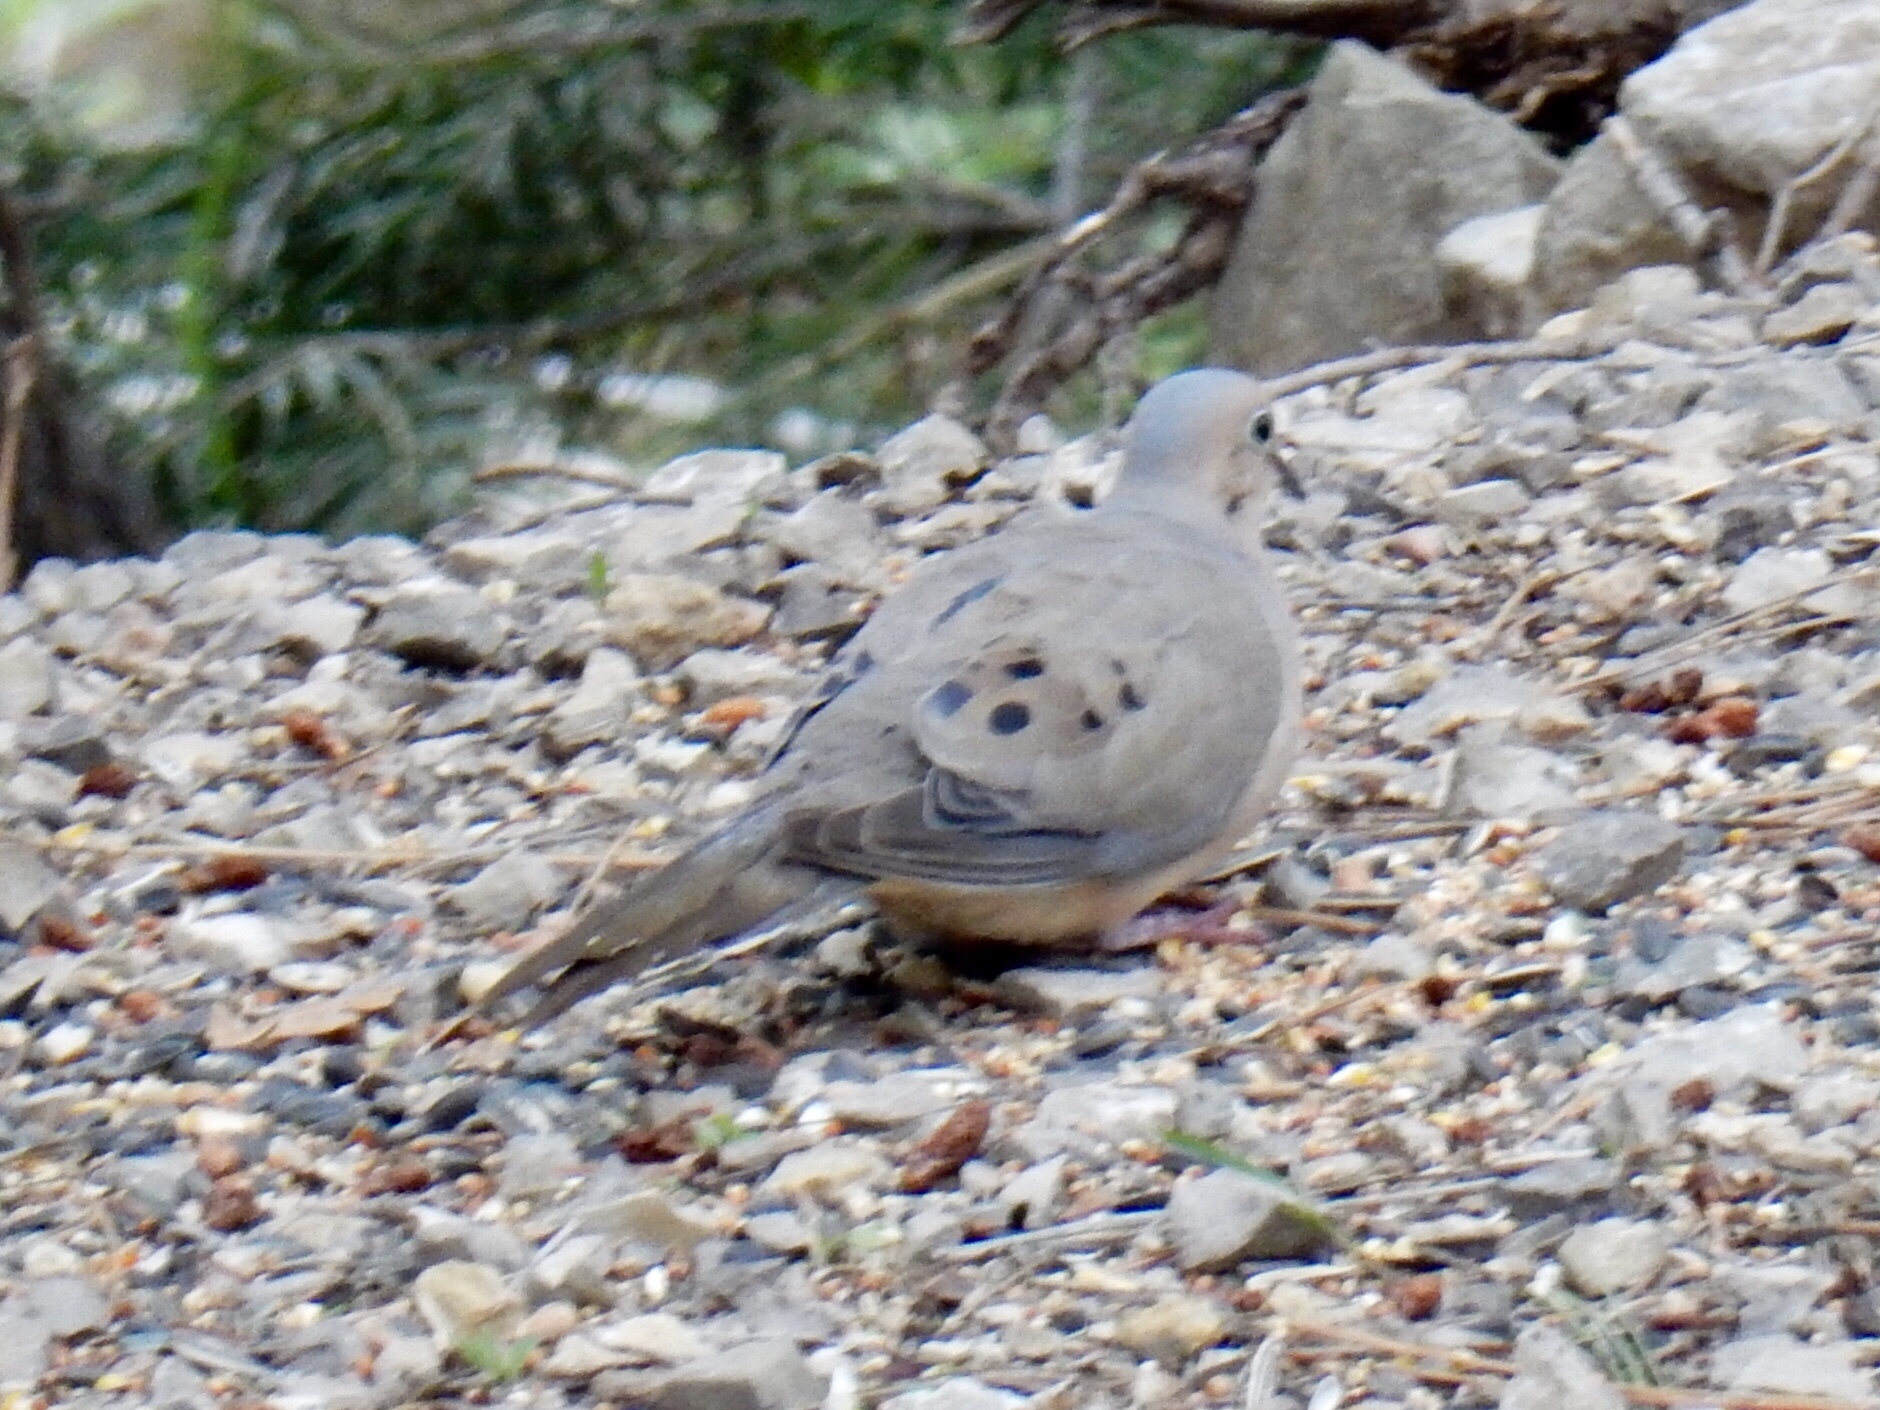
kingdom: Animalia
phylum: Chordata
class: Aves
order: Columbiformes
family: Columbidae
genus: Zenaida
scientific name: Zenaida macroura
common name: Mourning dove
